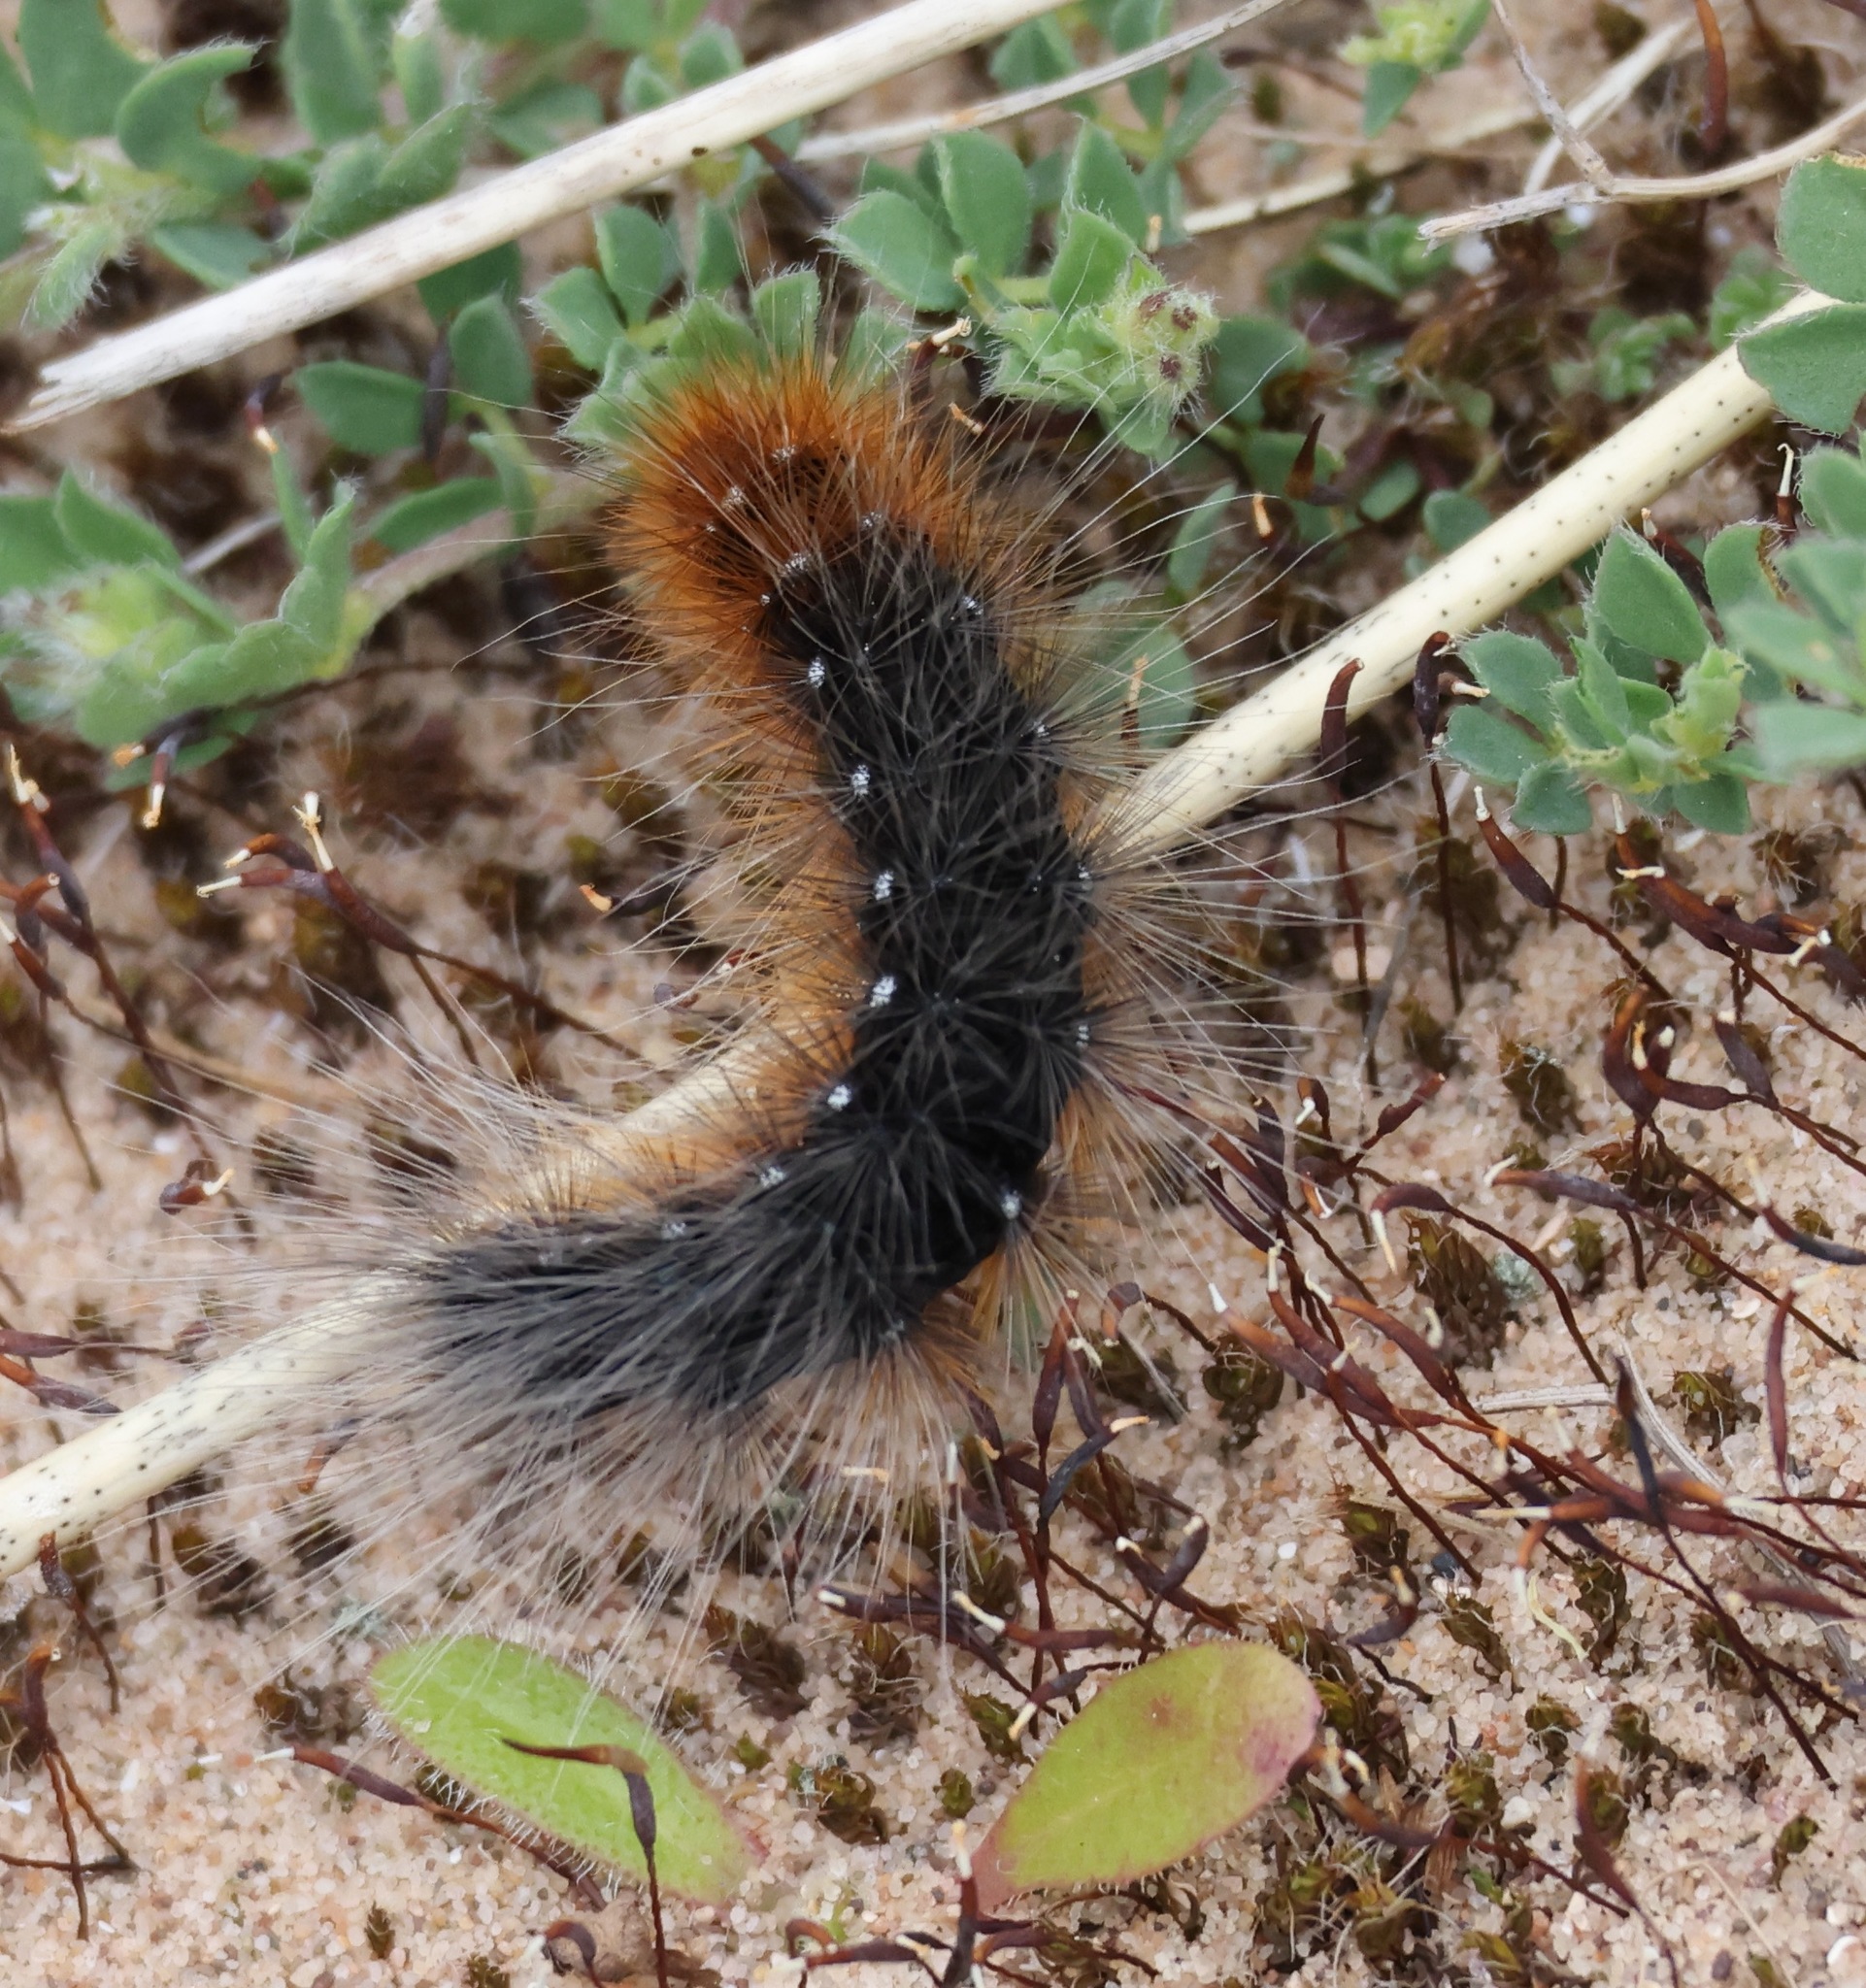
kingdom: Animalia
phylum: Arthropoda
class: Insecta
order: Lepidoptera
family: Erebidae
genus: Arctia
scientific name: Arctia caja
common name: Garden tiger
